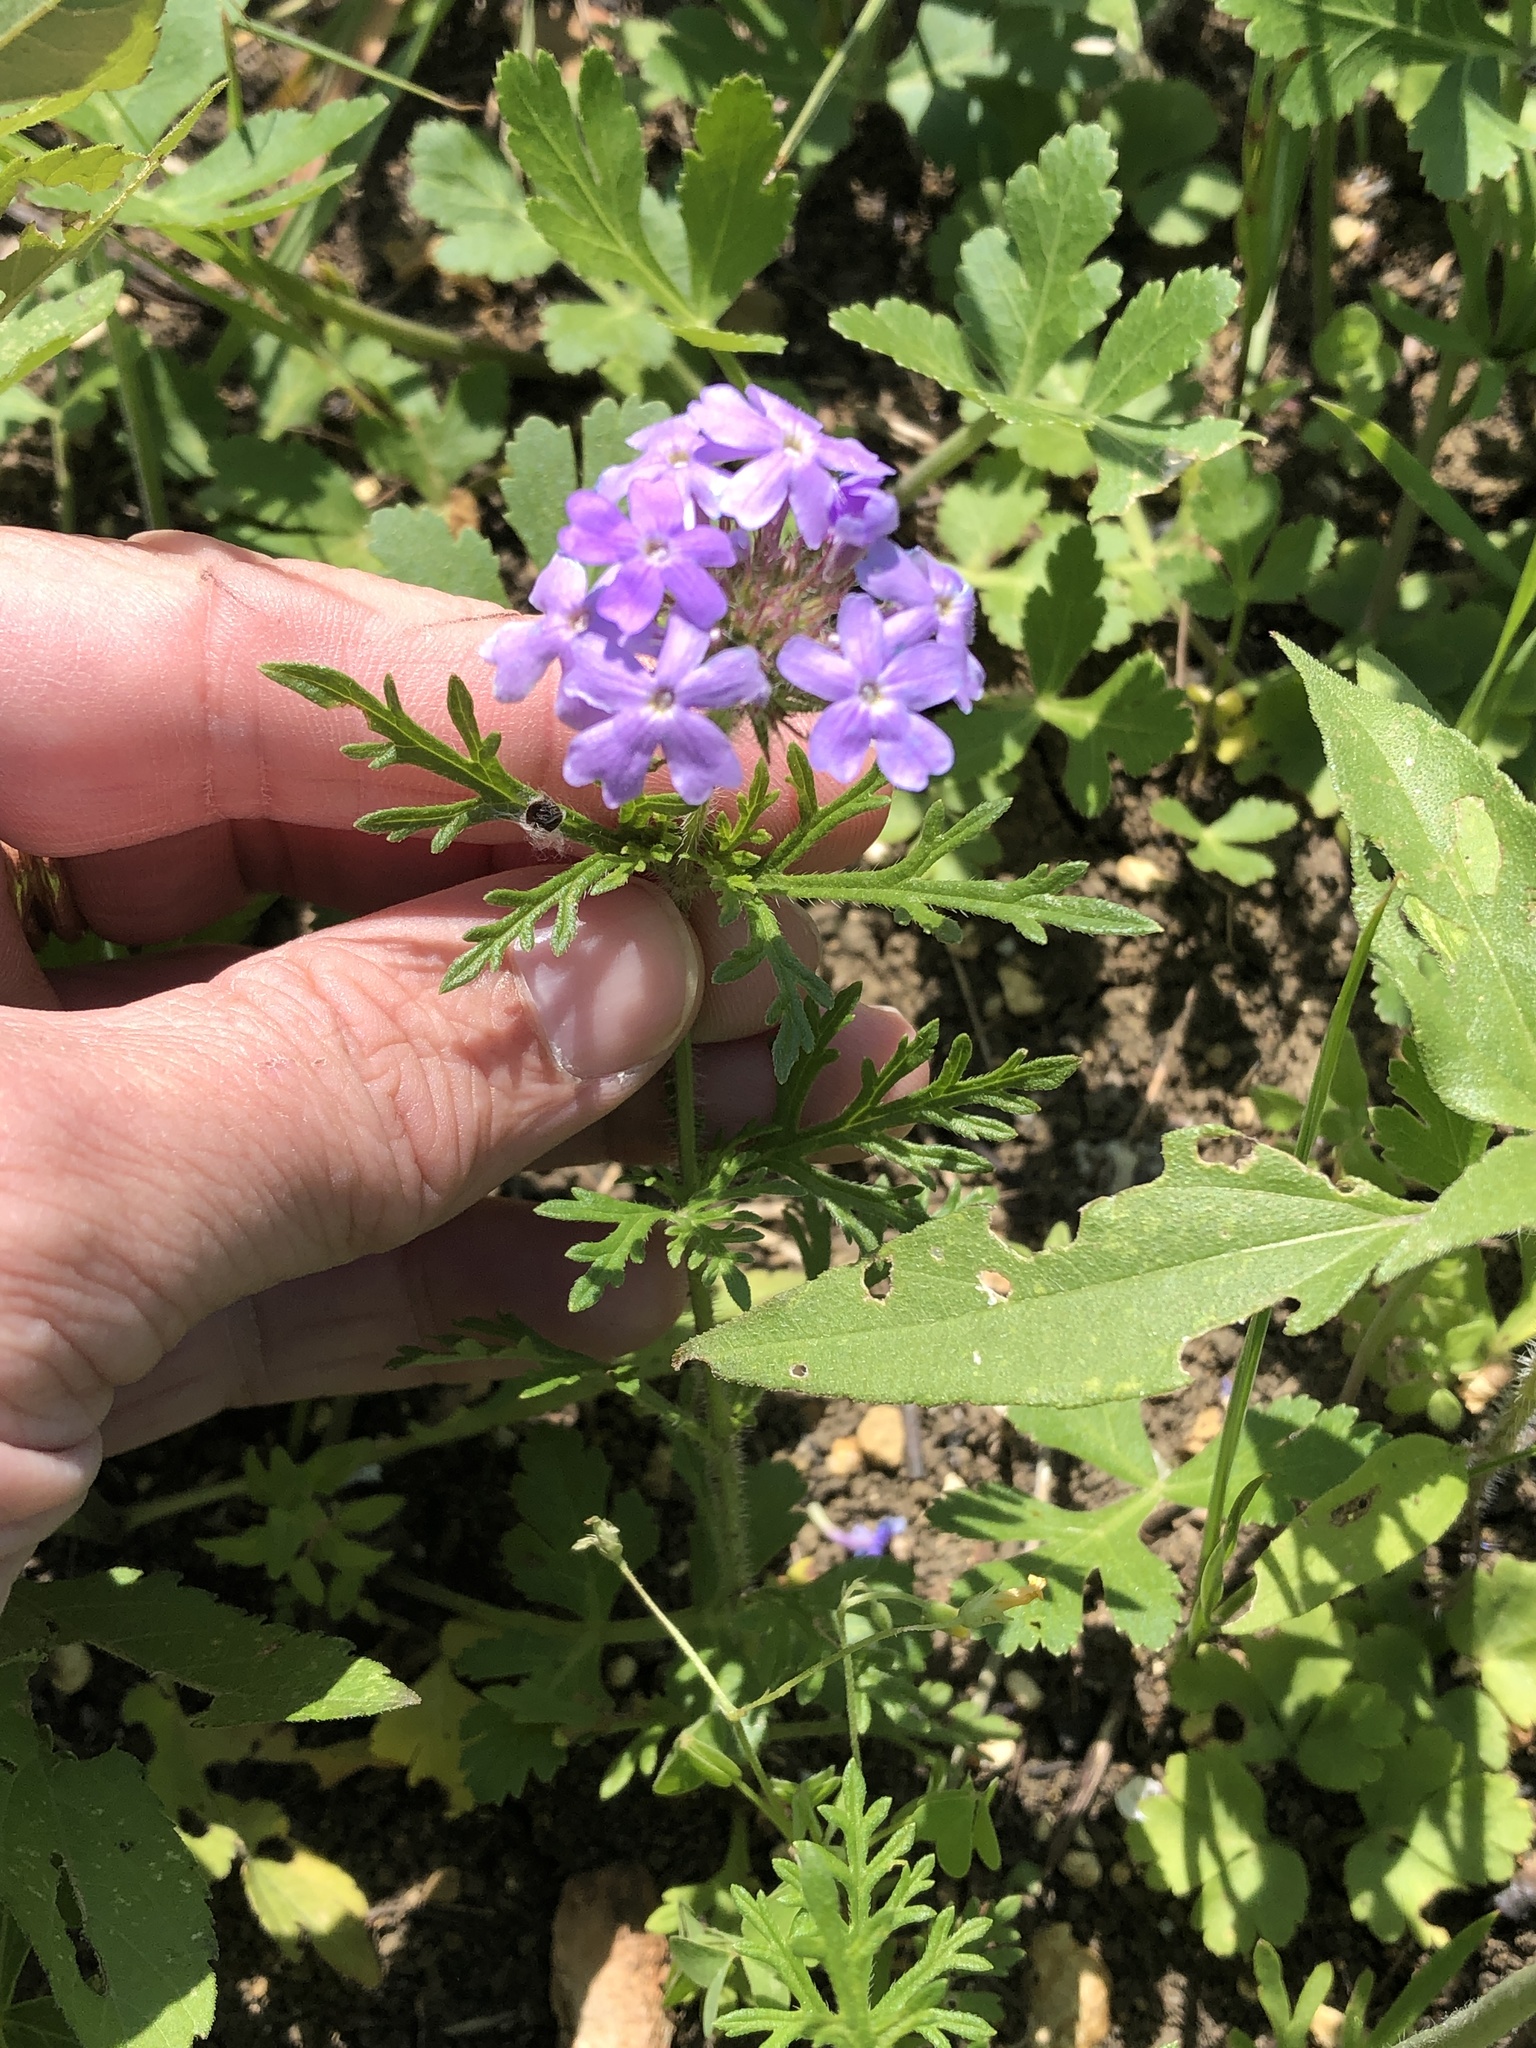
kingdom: Plantae
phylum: Tracheophyta
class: Magnoliopsida
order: Lamiales
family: Verbenaceae
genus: Verbena
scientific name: Verbena bipinnatifida
